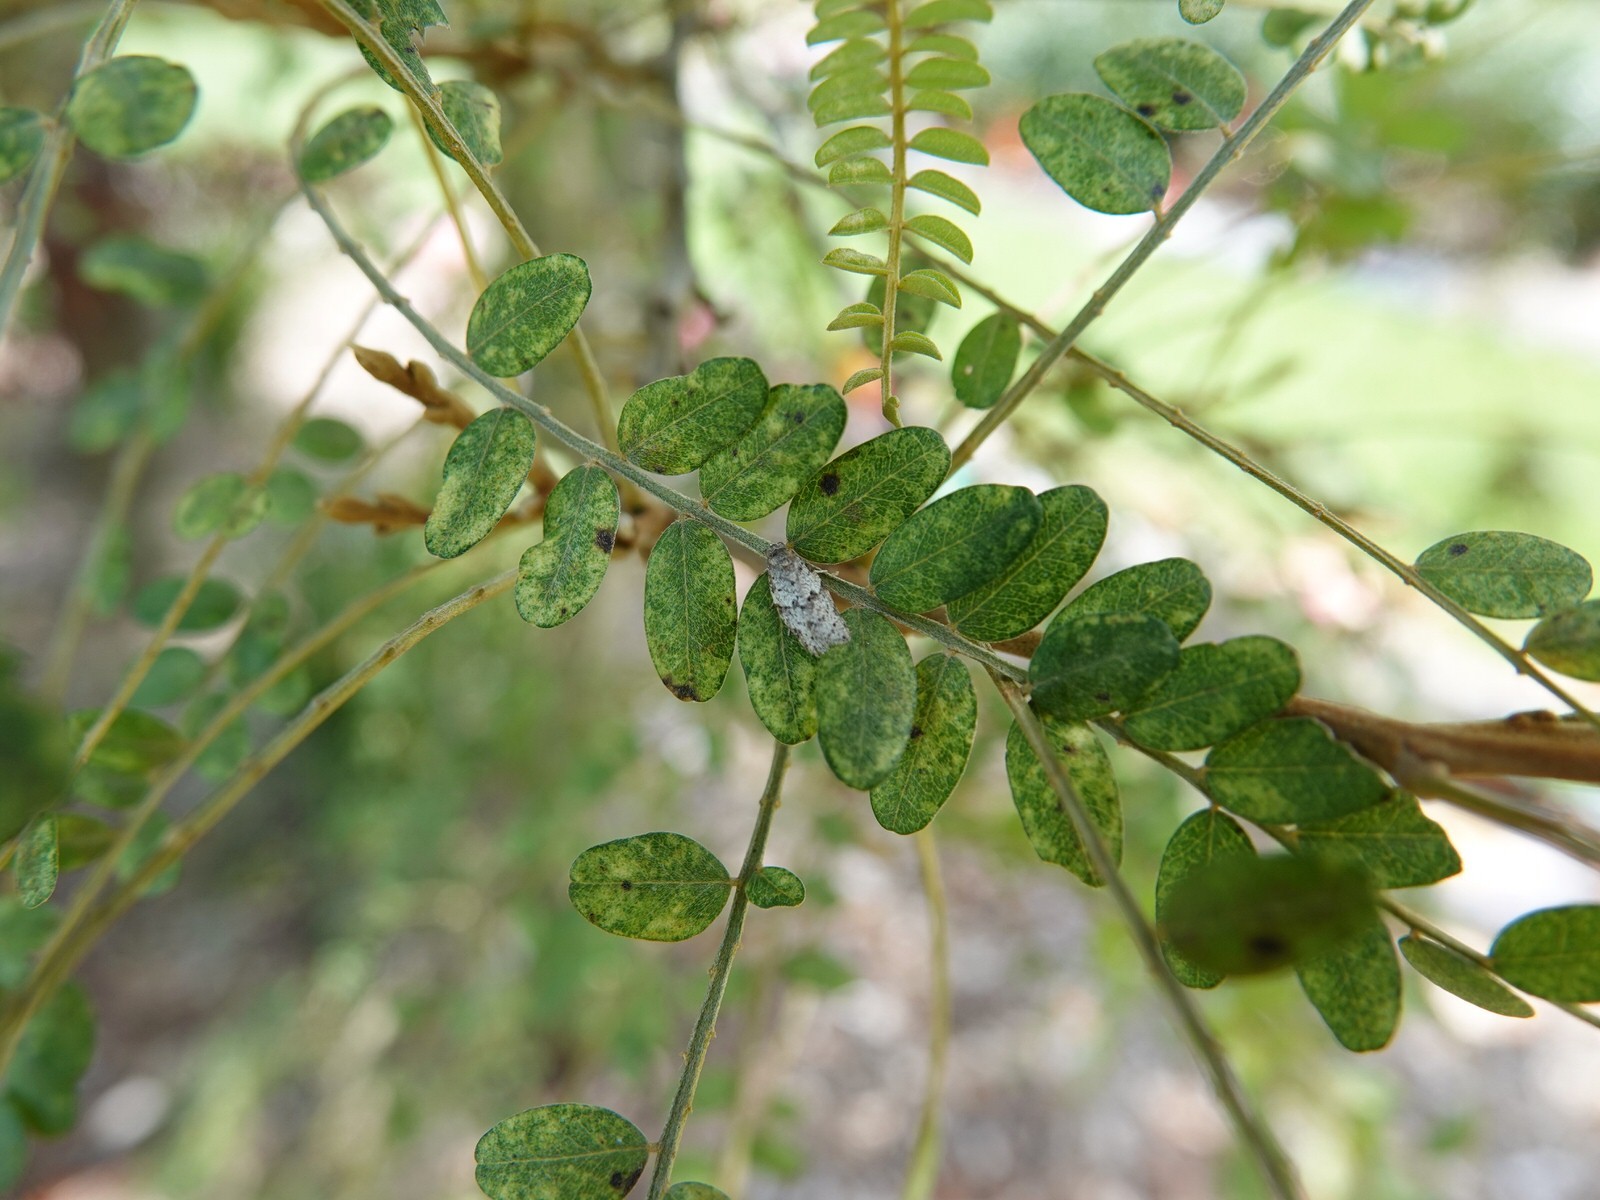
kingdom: Animalia
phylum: Arthropoda
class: Insecta
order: Lepidoptera
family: Tortricidae
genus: Isotenes
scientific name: Isotenes miserana
